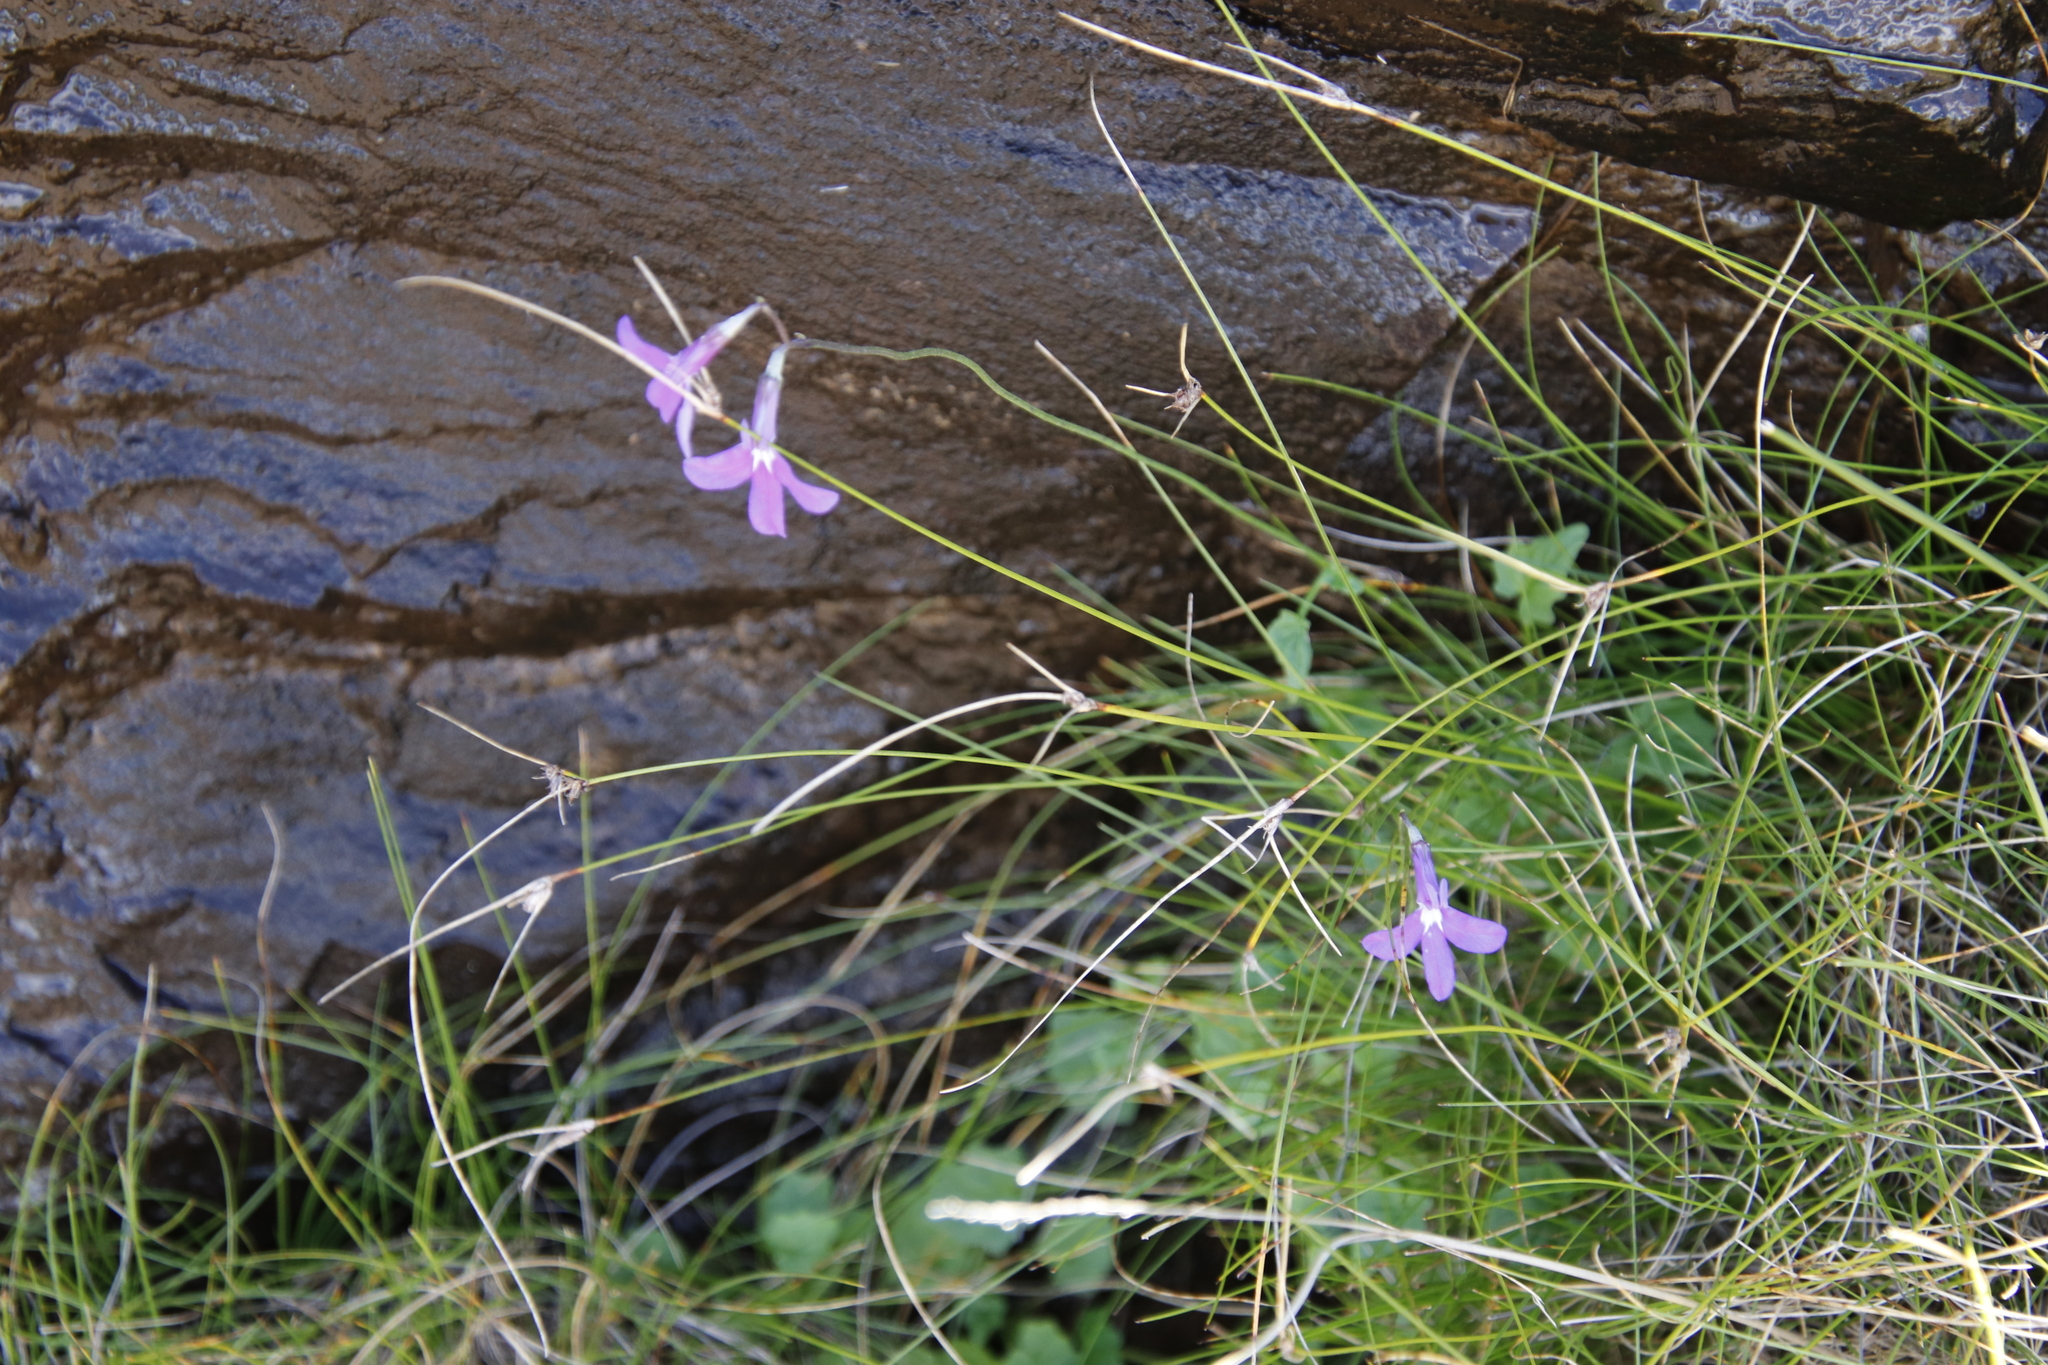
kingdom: Plantae
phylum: Tracheophyta
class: Magnoliopsida
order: Asterales
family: Campanulaceae
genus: Lobelia
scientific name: Lobelia preslii
